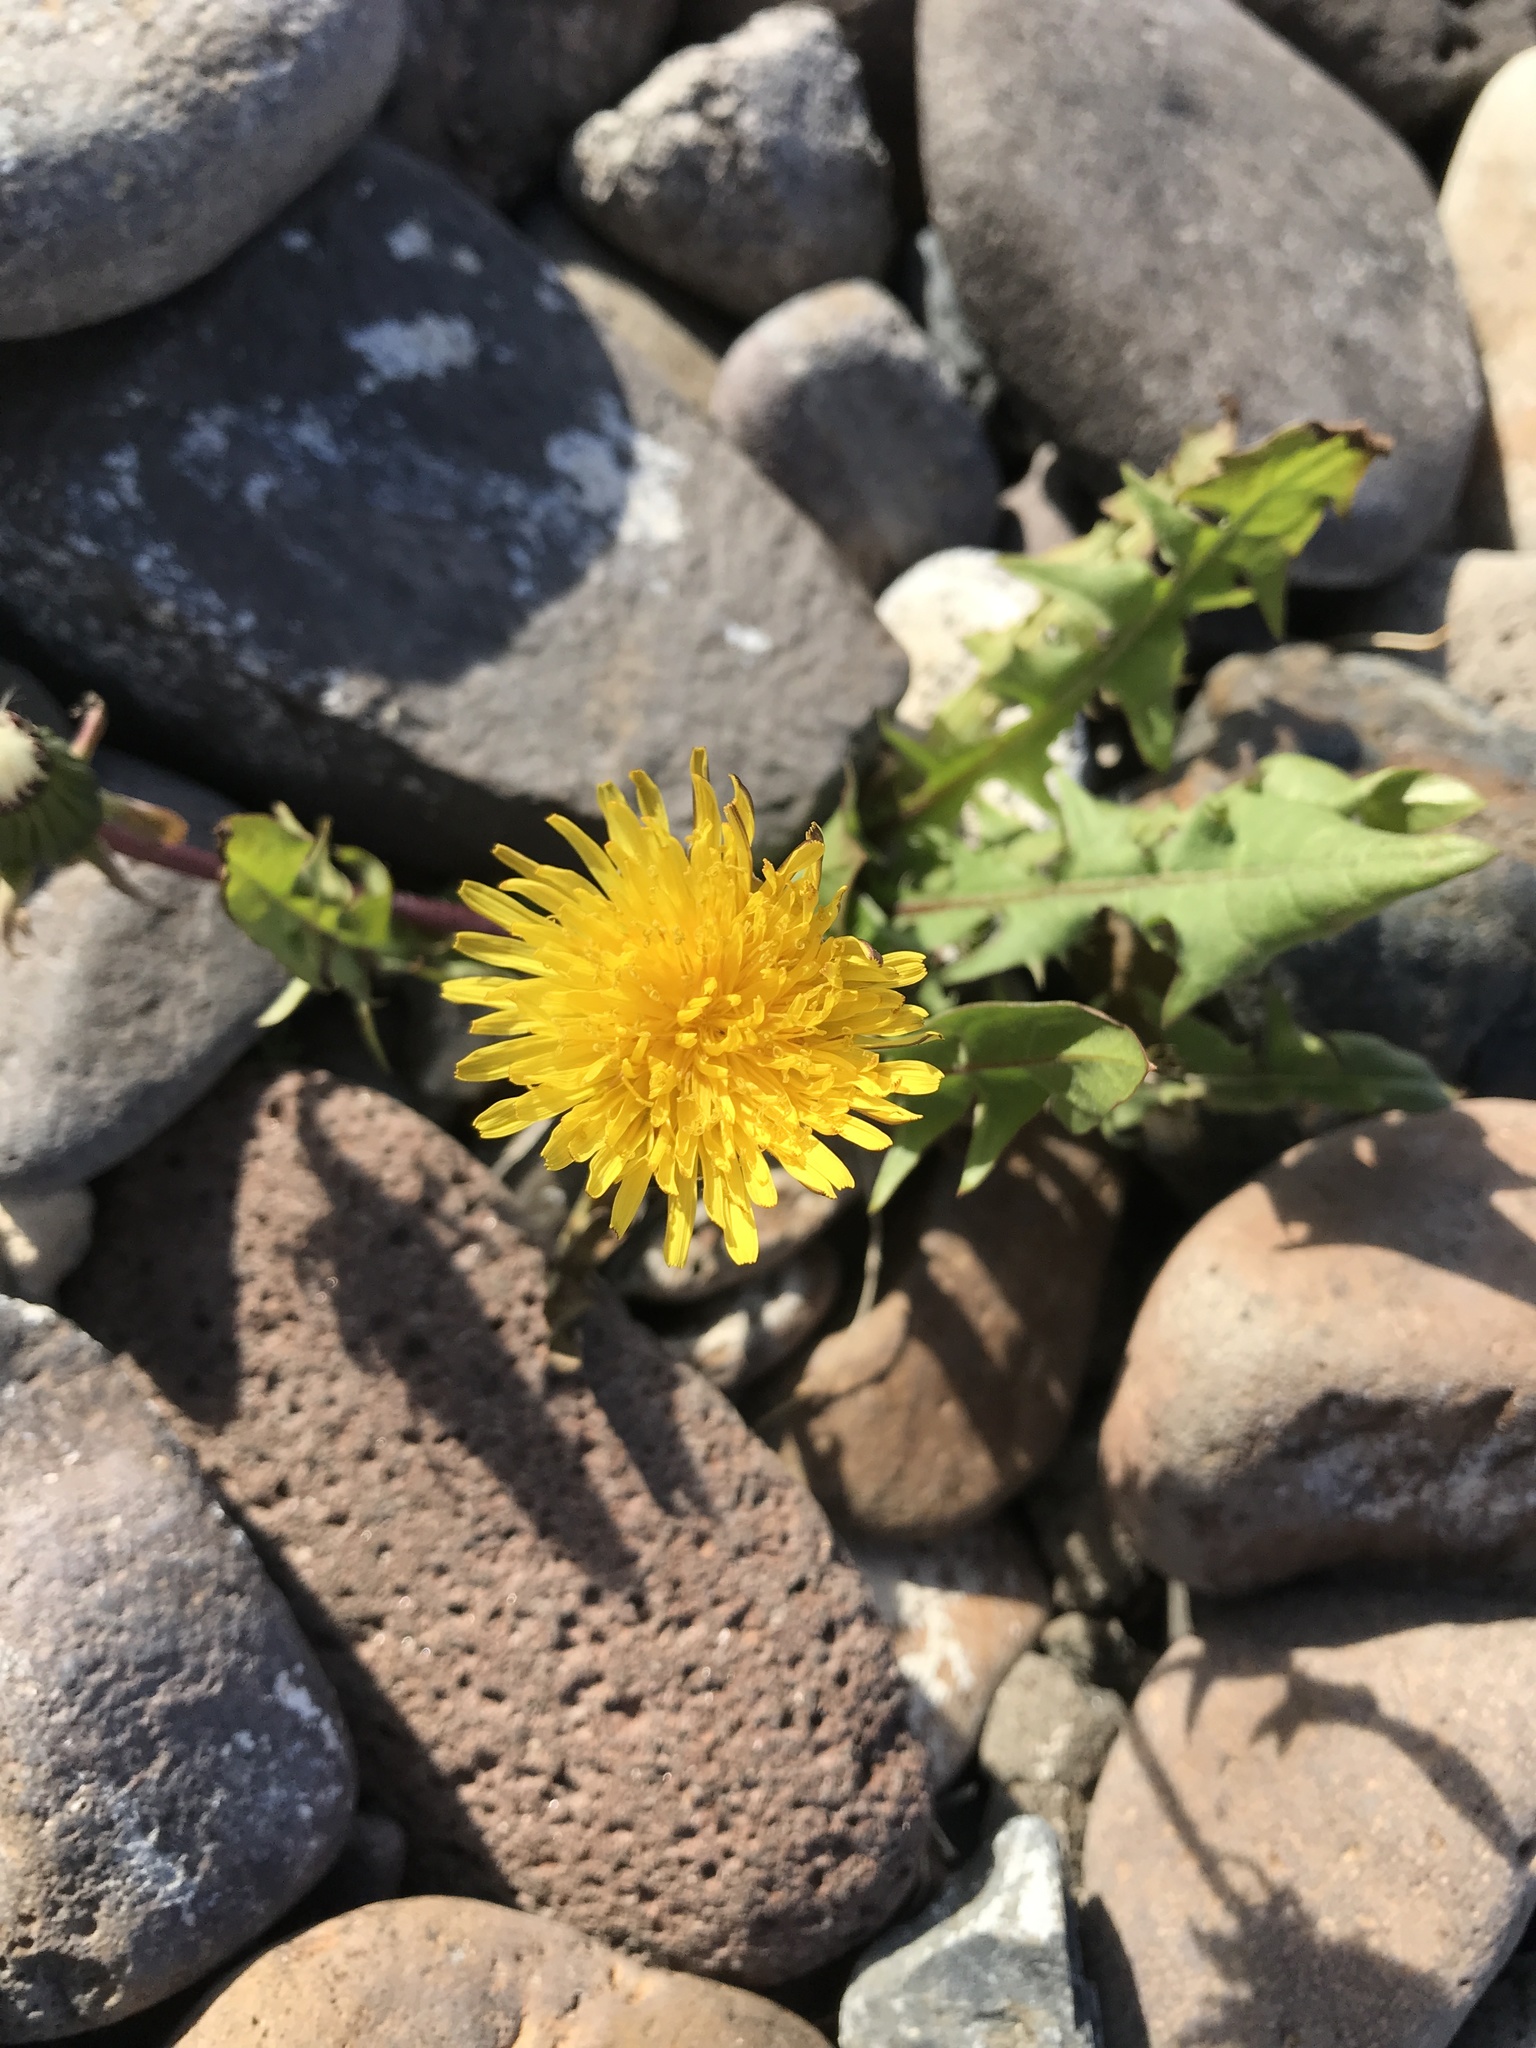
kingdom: Plantae
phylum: Tracheophyta
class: Magnoliopsida
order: Asterales
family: Asteraceae
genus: Taraxacum
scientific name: Taraxacum officinale
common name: Common dandelion
